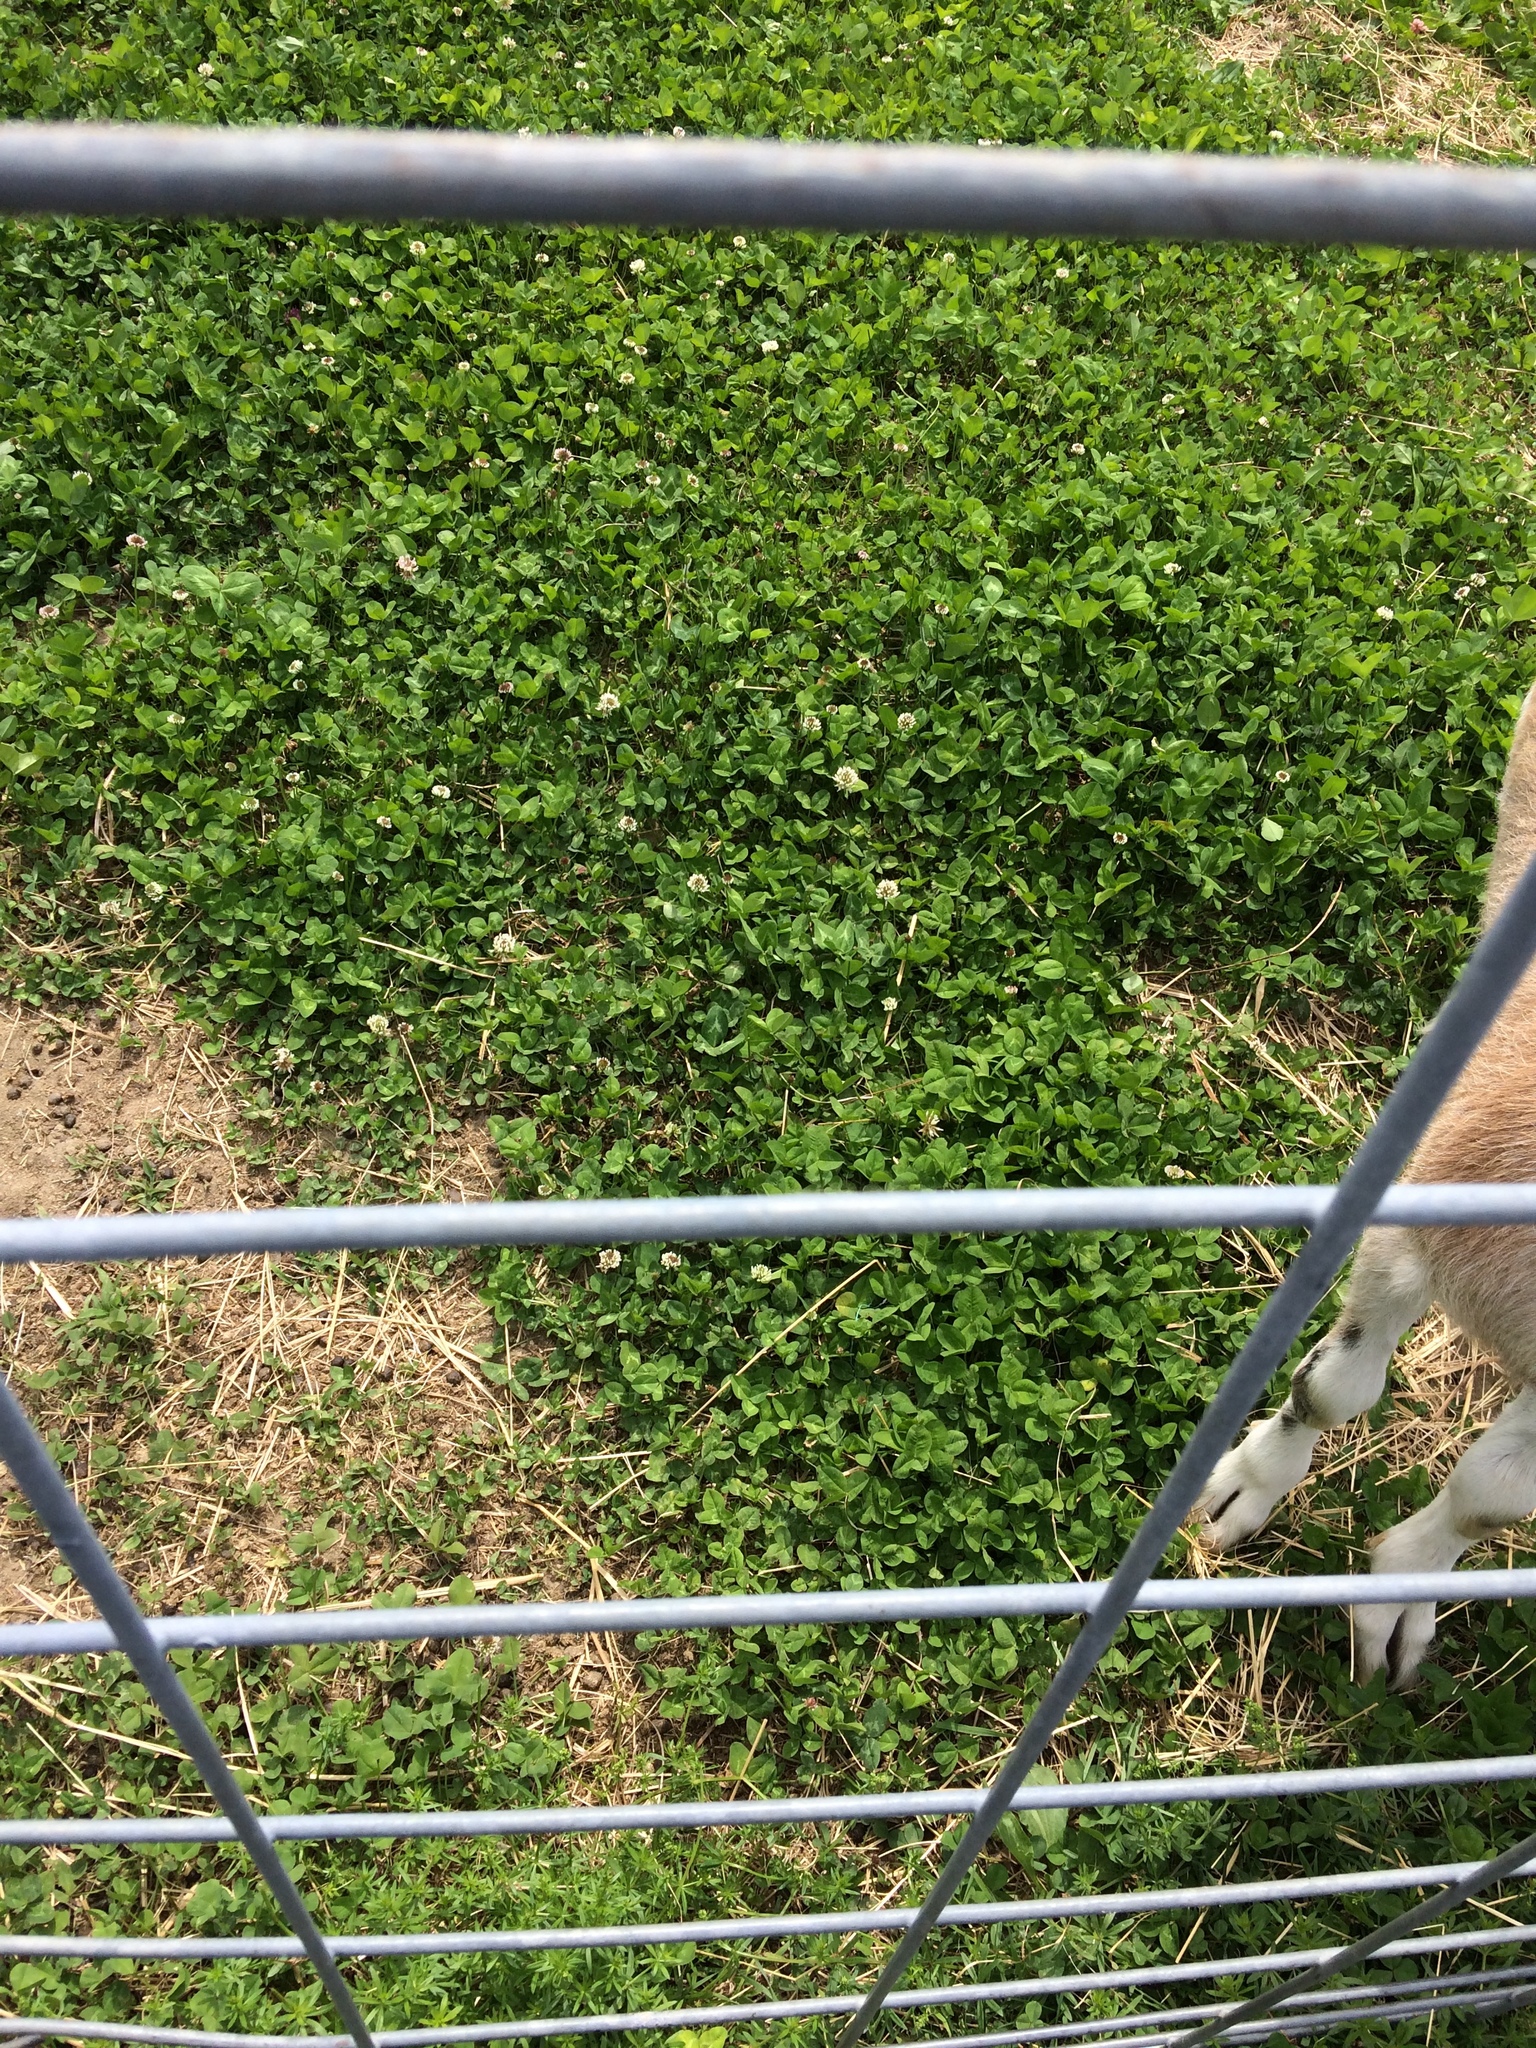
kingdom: Plantae
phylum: Tracheophyta
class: Magnoliopsida
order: Fabales
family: Fabaceae
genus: Trifolium
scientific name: Trifolium repens
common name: White clover
